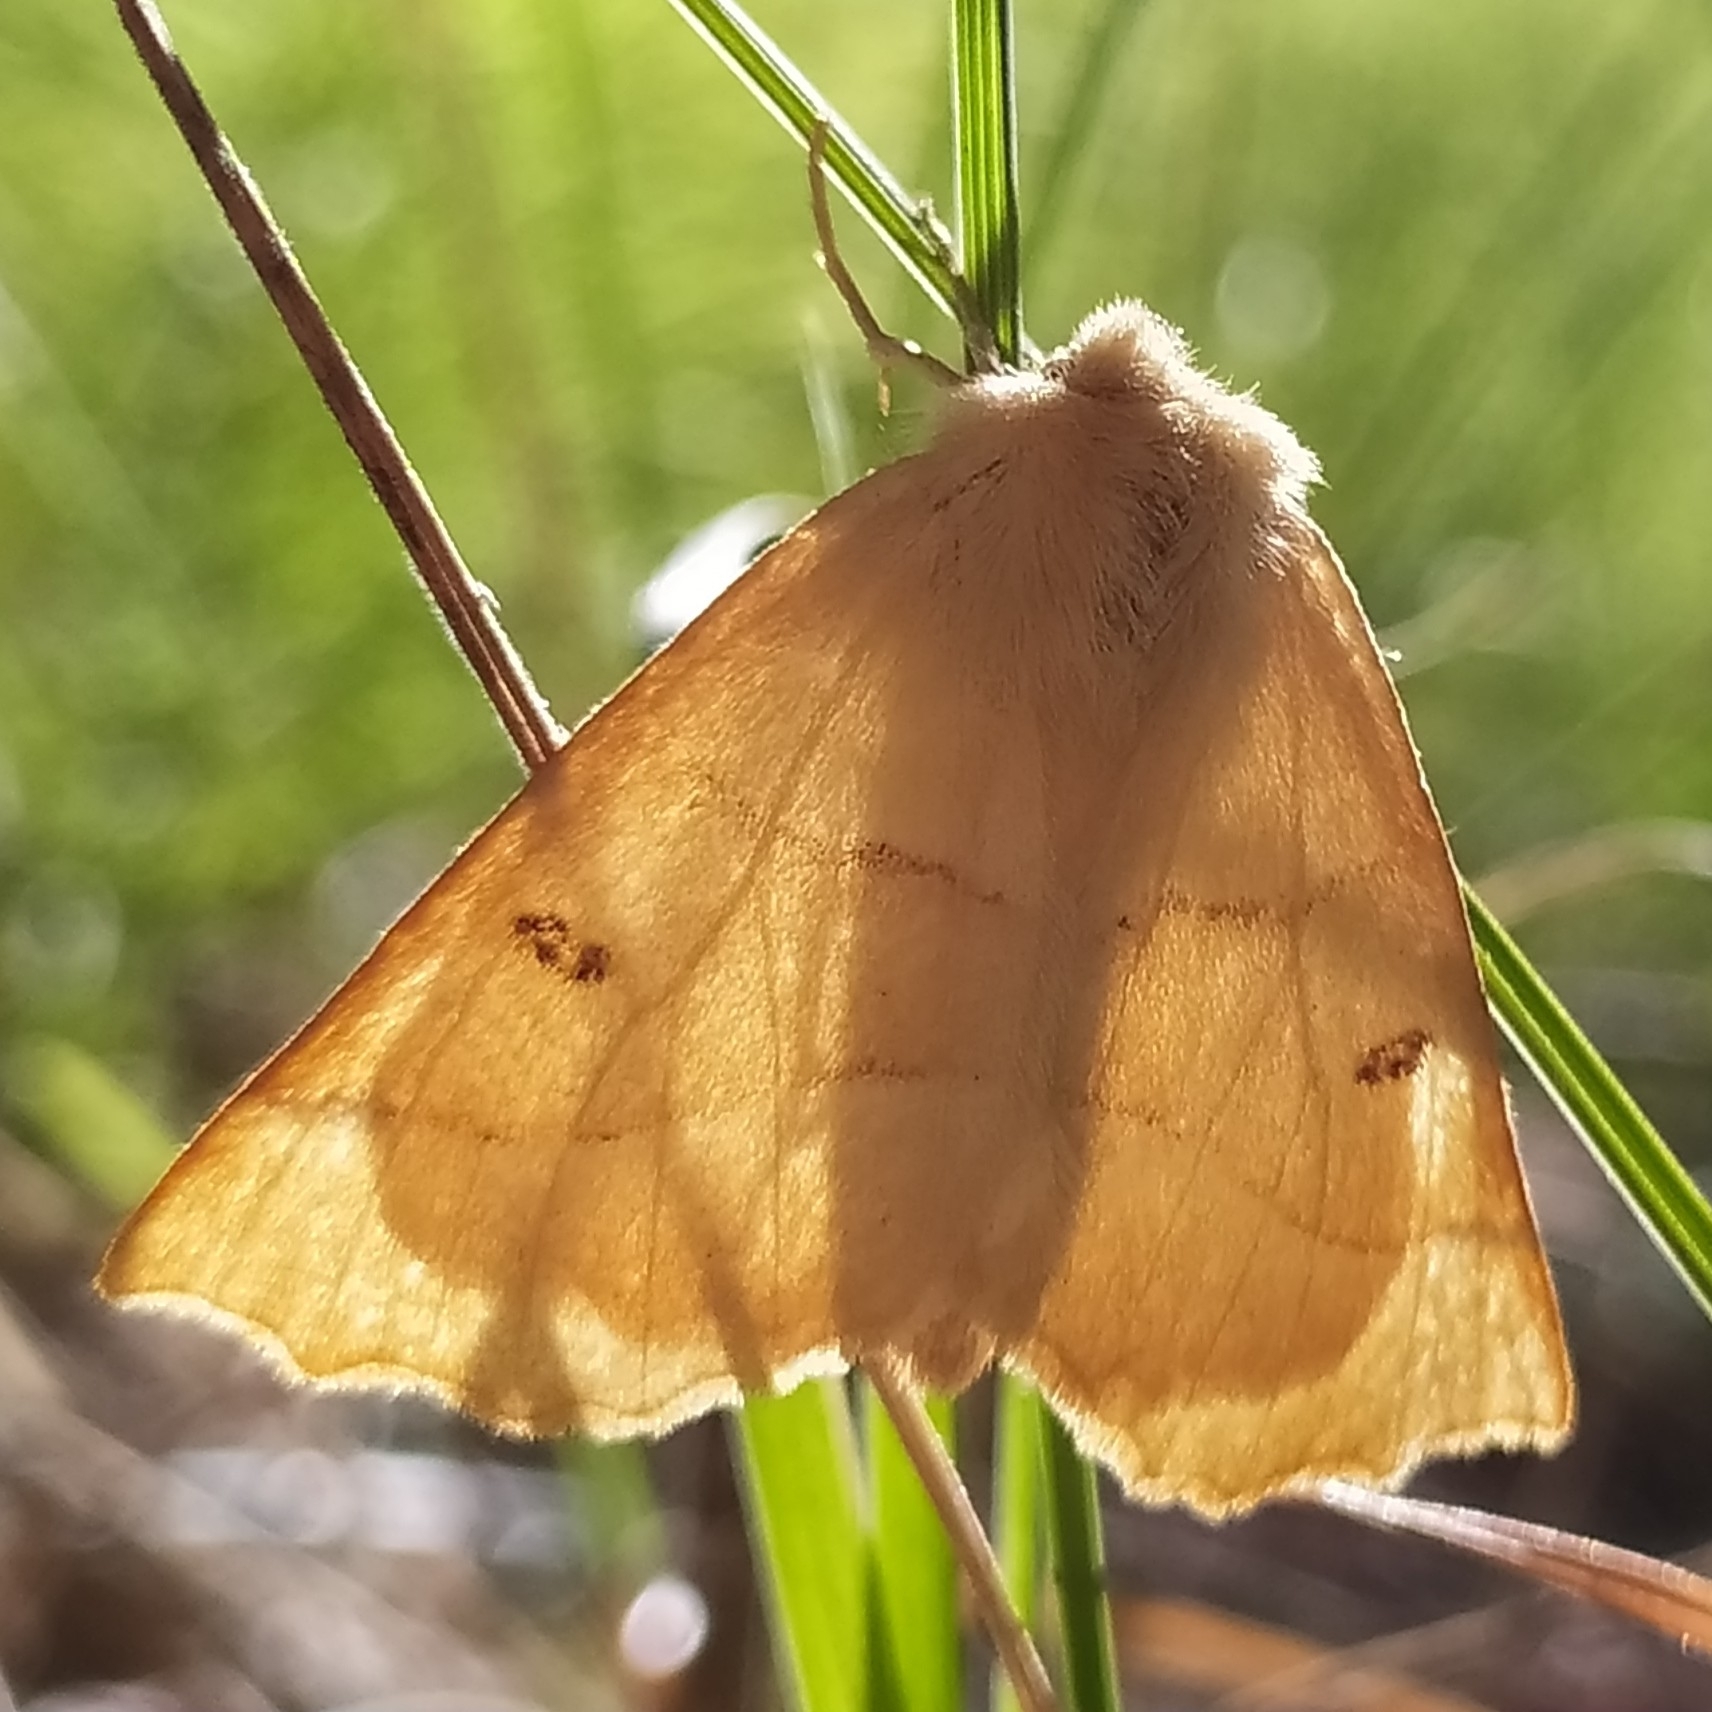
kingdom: Animalia
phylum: Arthropoda
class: Insecta
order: Lepidoptera
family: Geometridae
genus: Crocallis
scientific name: Crocallis elinguaria
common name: Scalloped oak
